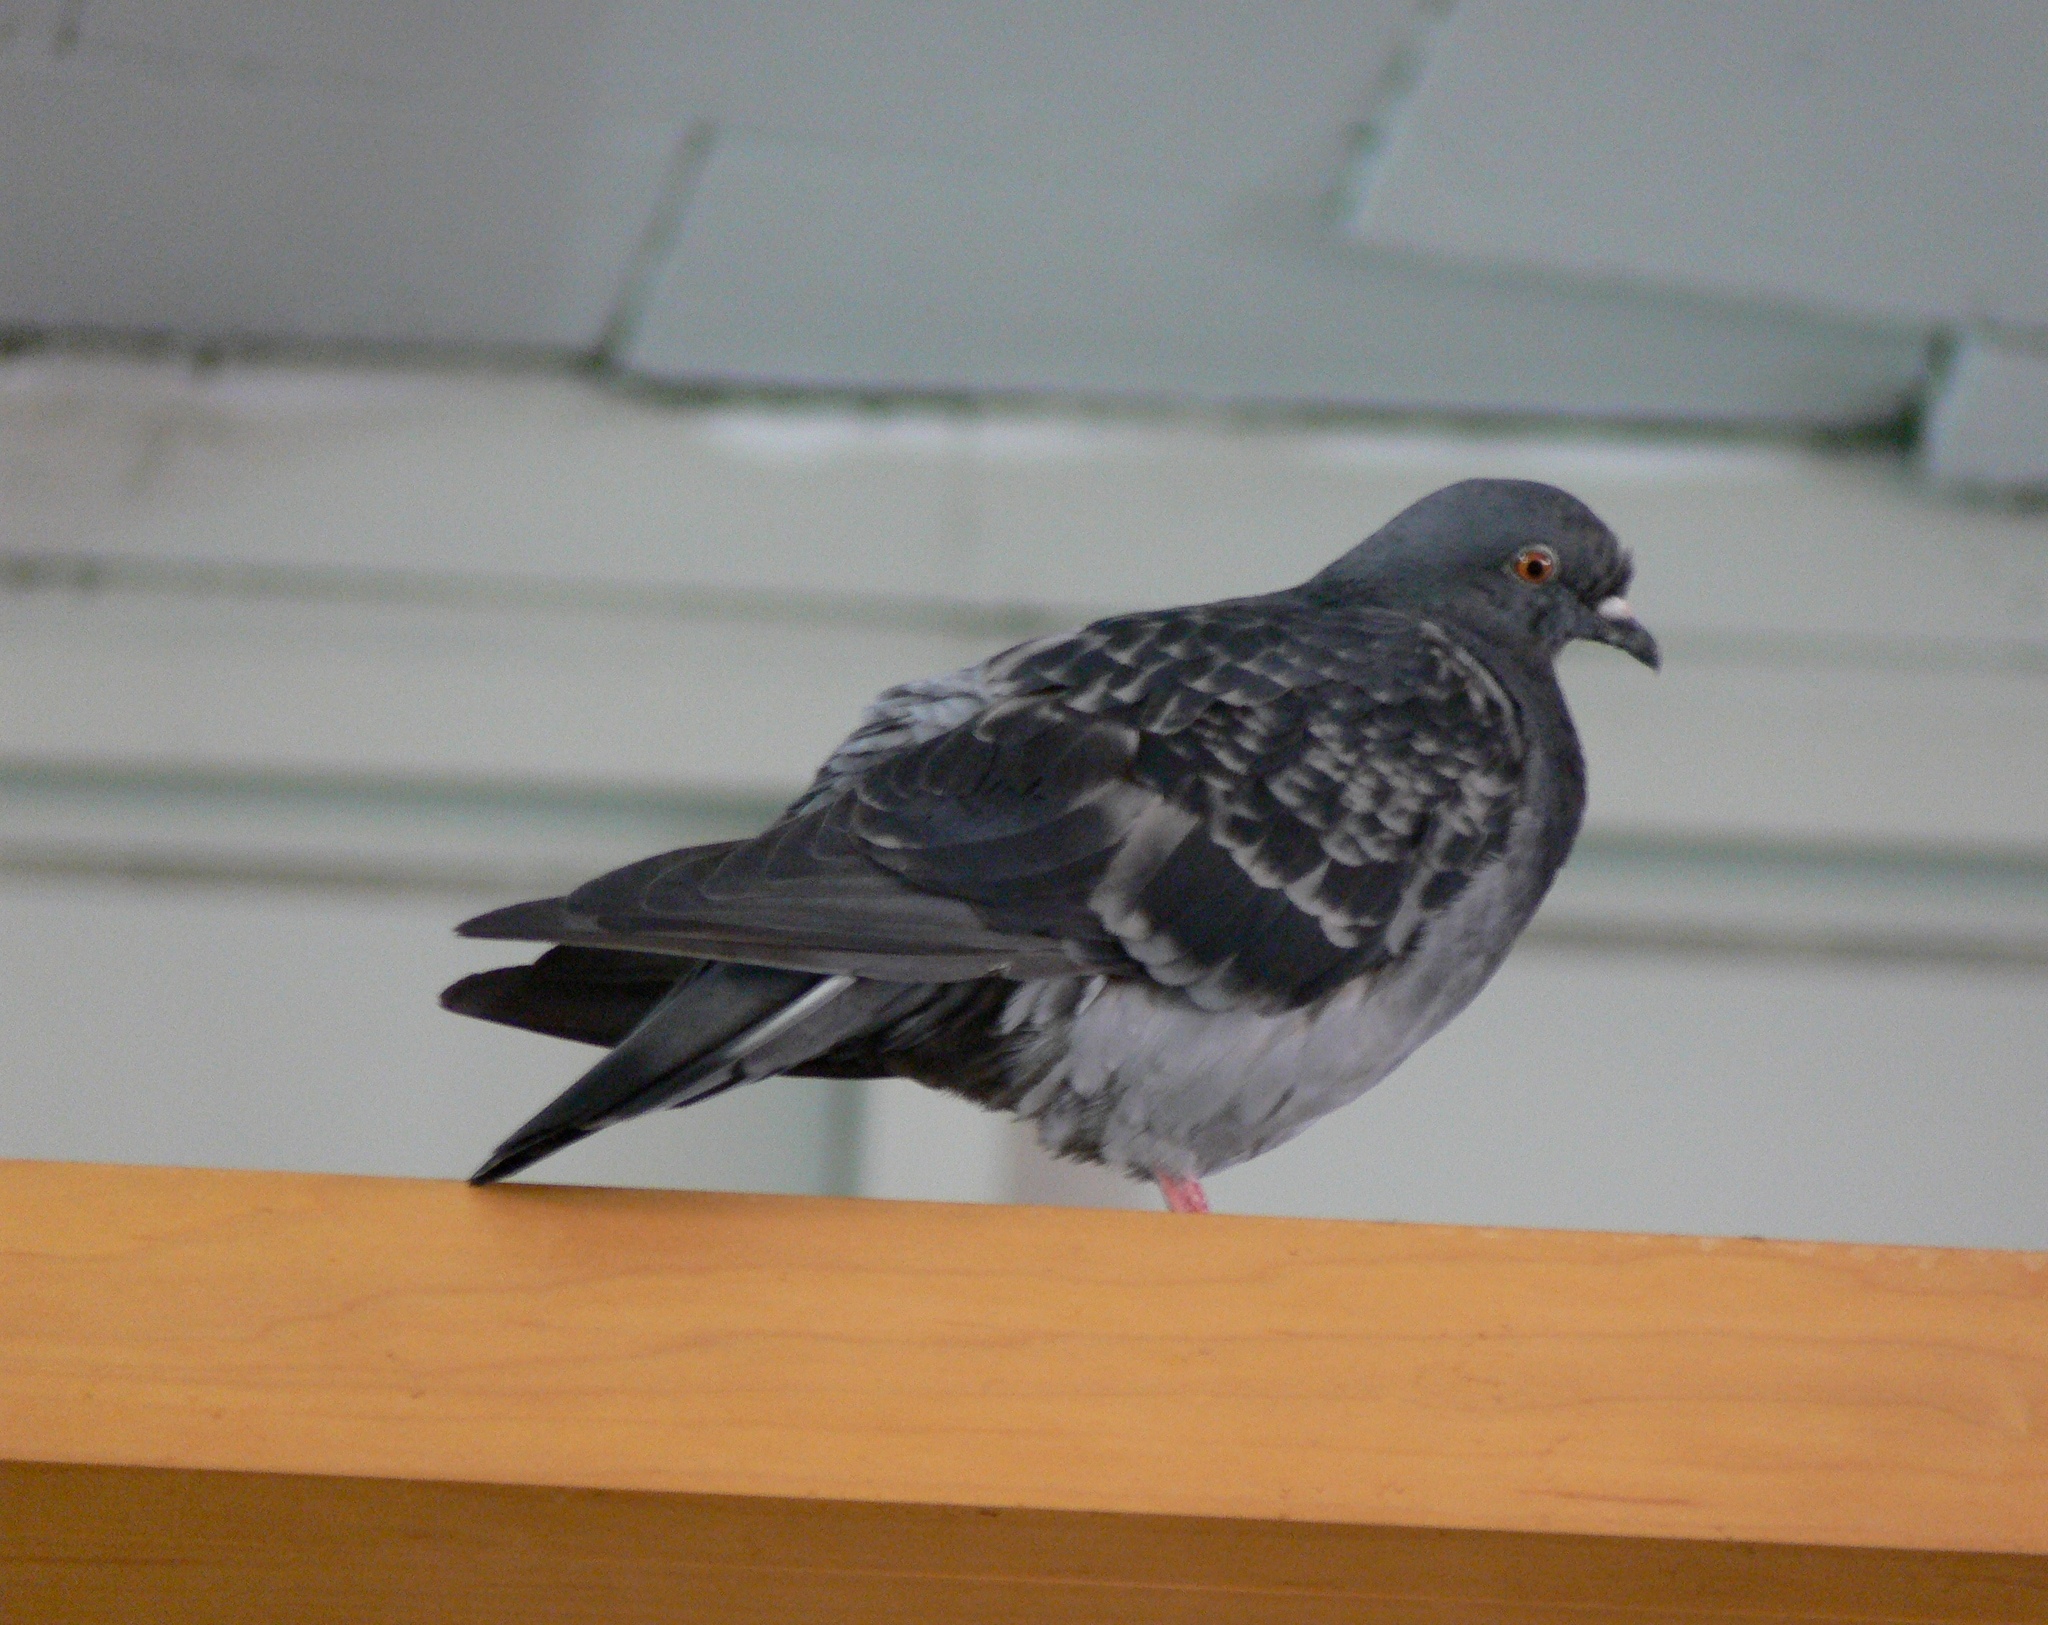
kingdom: Animalia
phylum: Chordata
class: Aves
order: Columbiformes
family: Columbidae
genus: Columba
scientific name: Columba livia
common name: Rock pigeon
